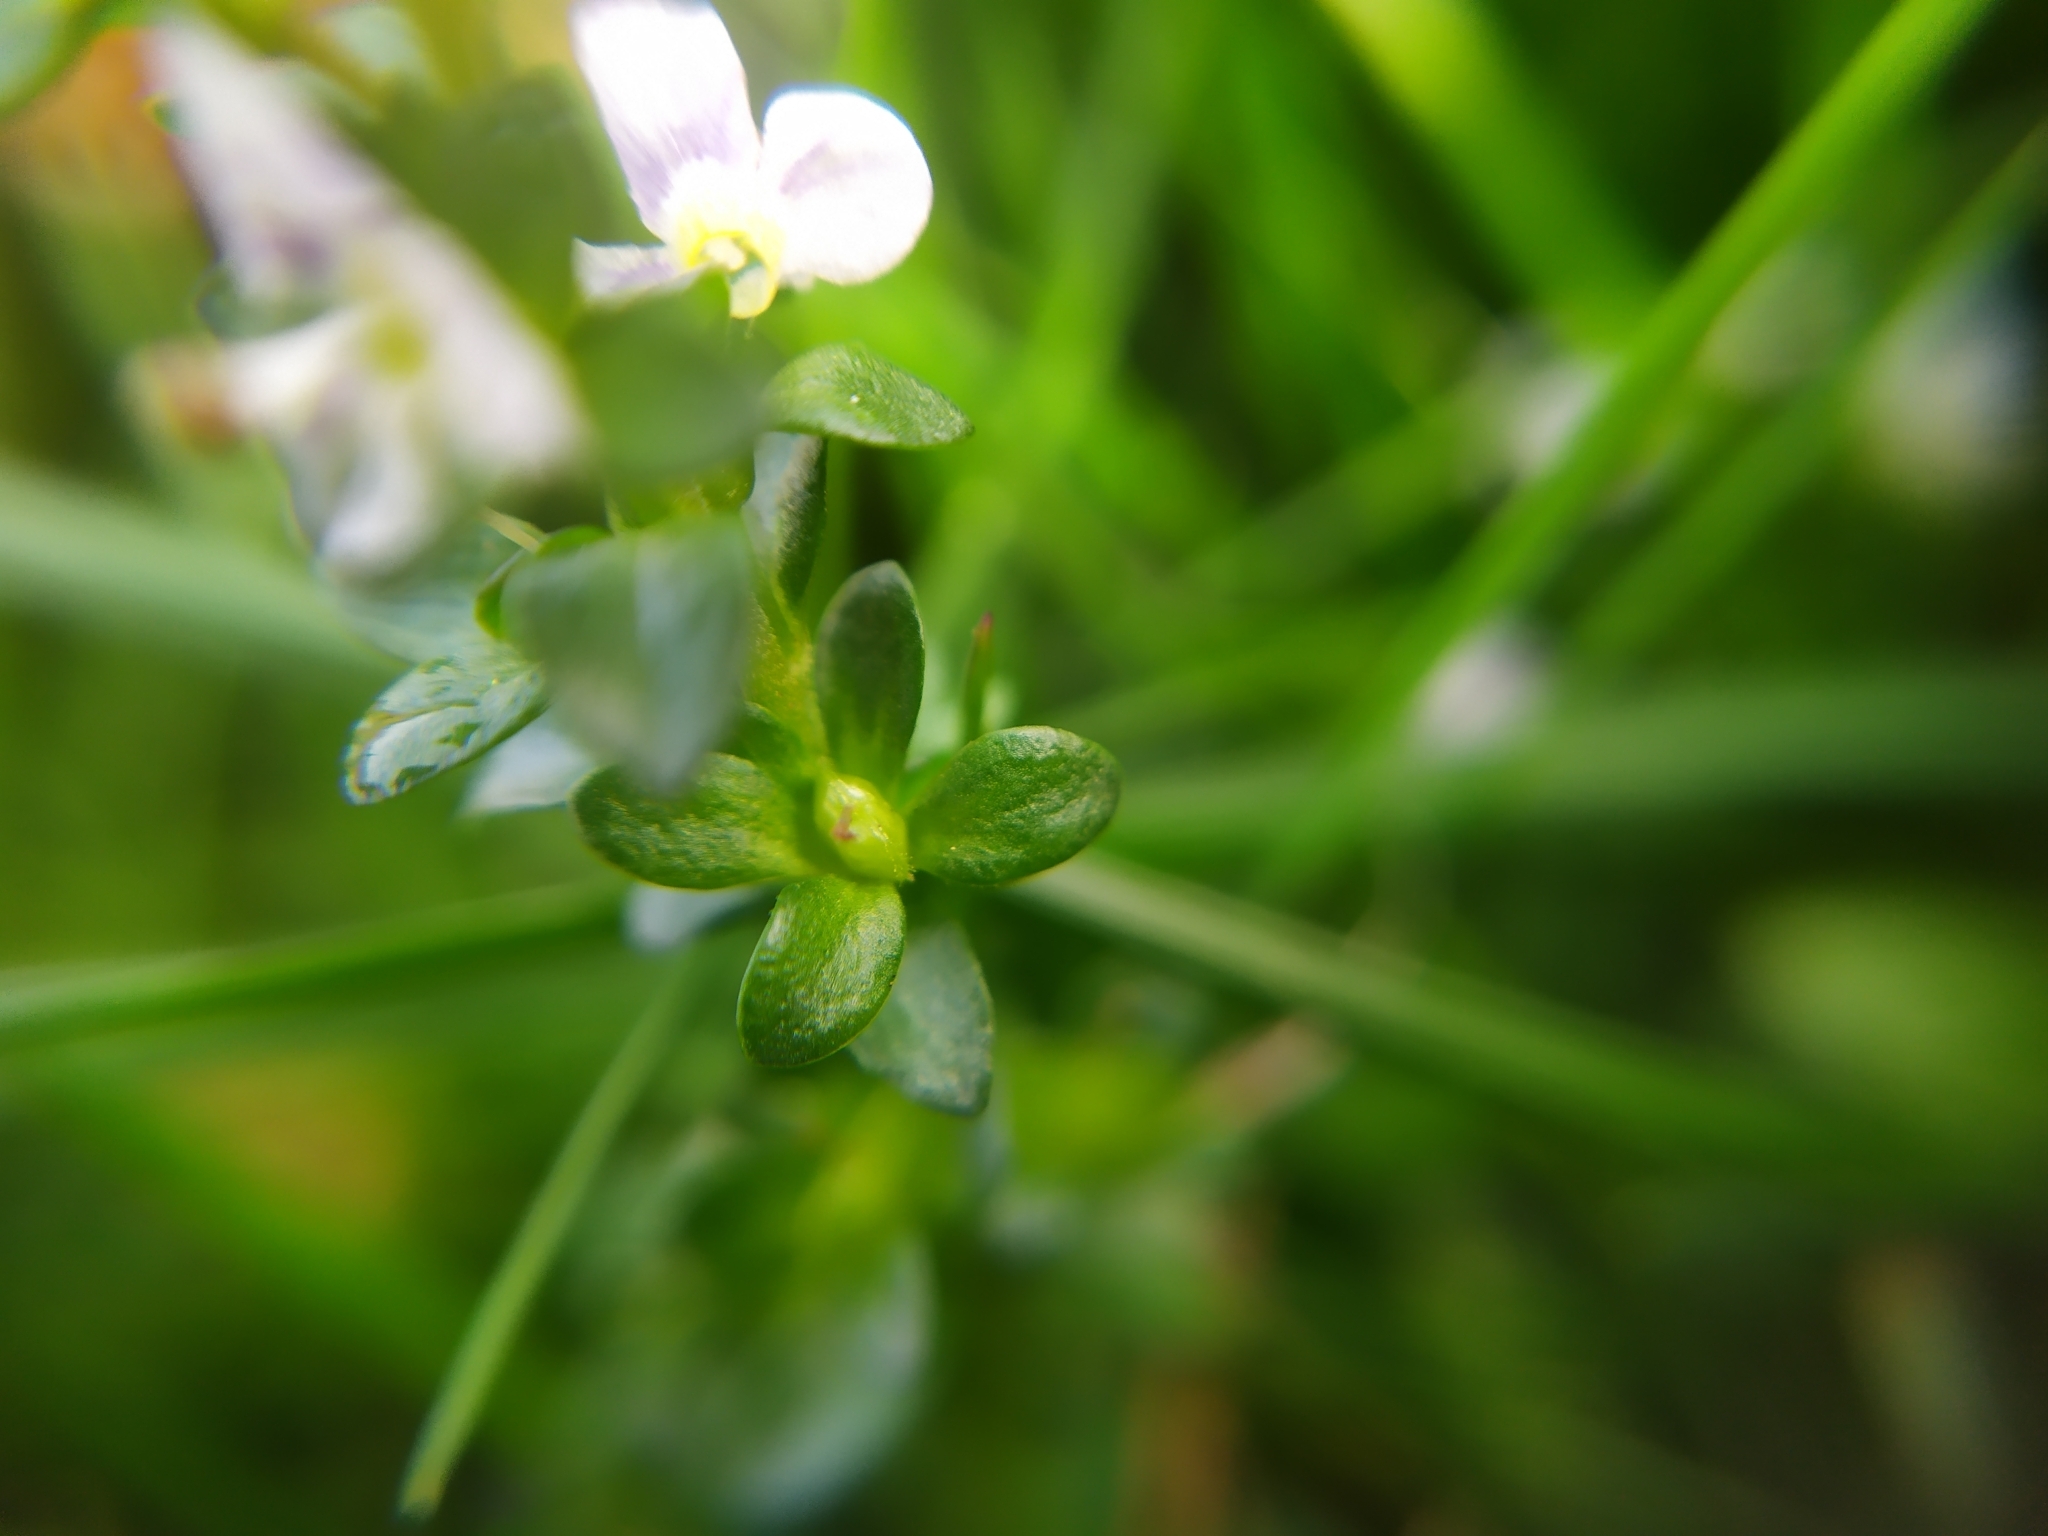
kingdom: Plantae
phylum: Tracheophyta
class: Magnoliopsida
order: Lamiales
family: Plantaginaceae
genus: Veronica
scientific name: Veronica serpyllifolia
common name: Thyme-leaved speedwell
